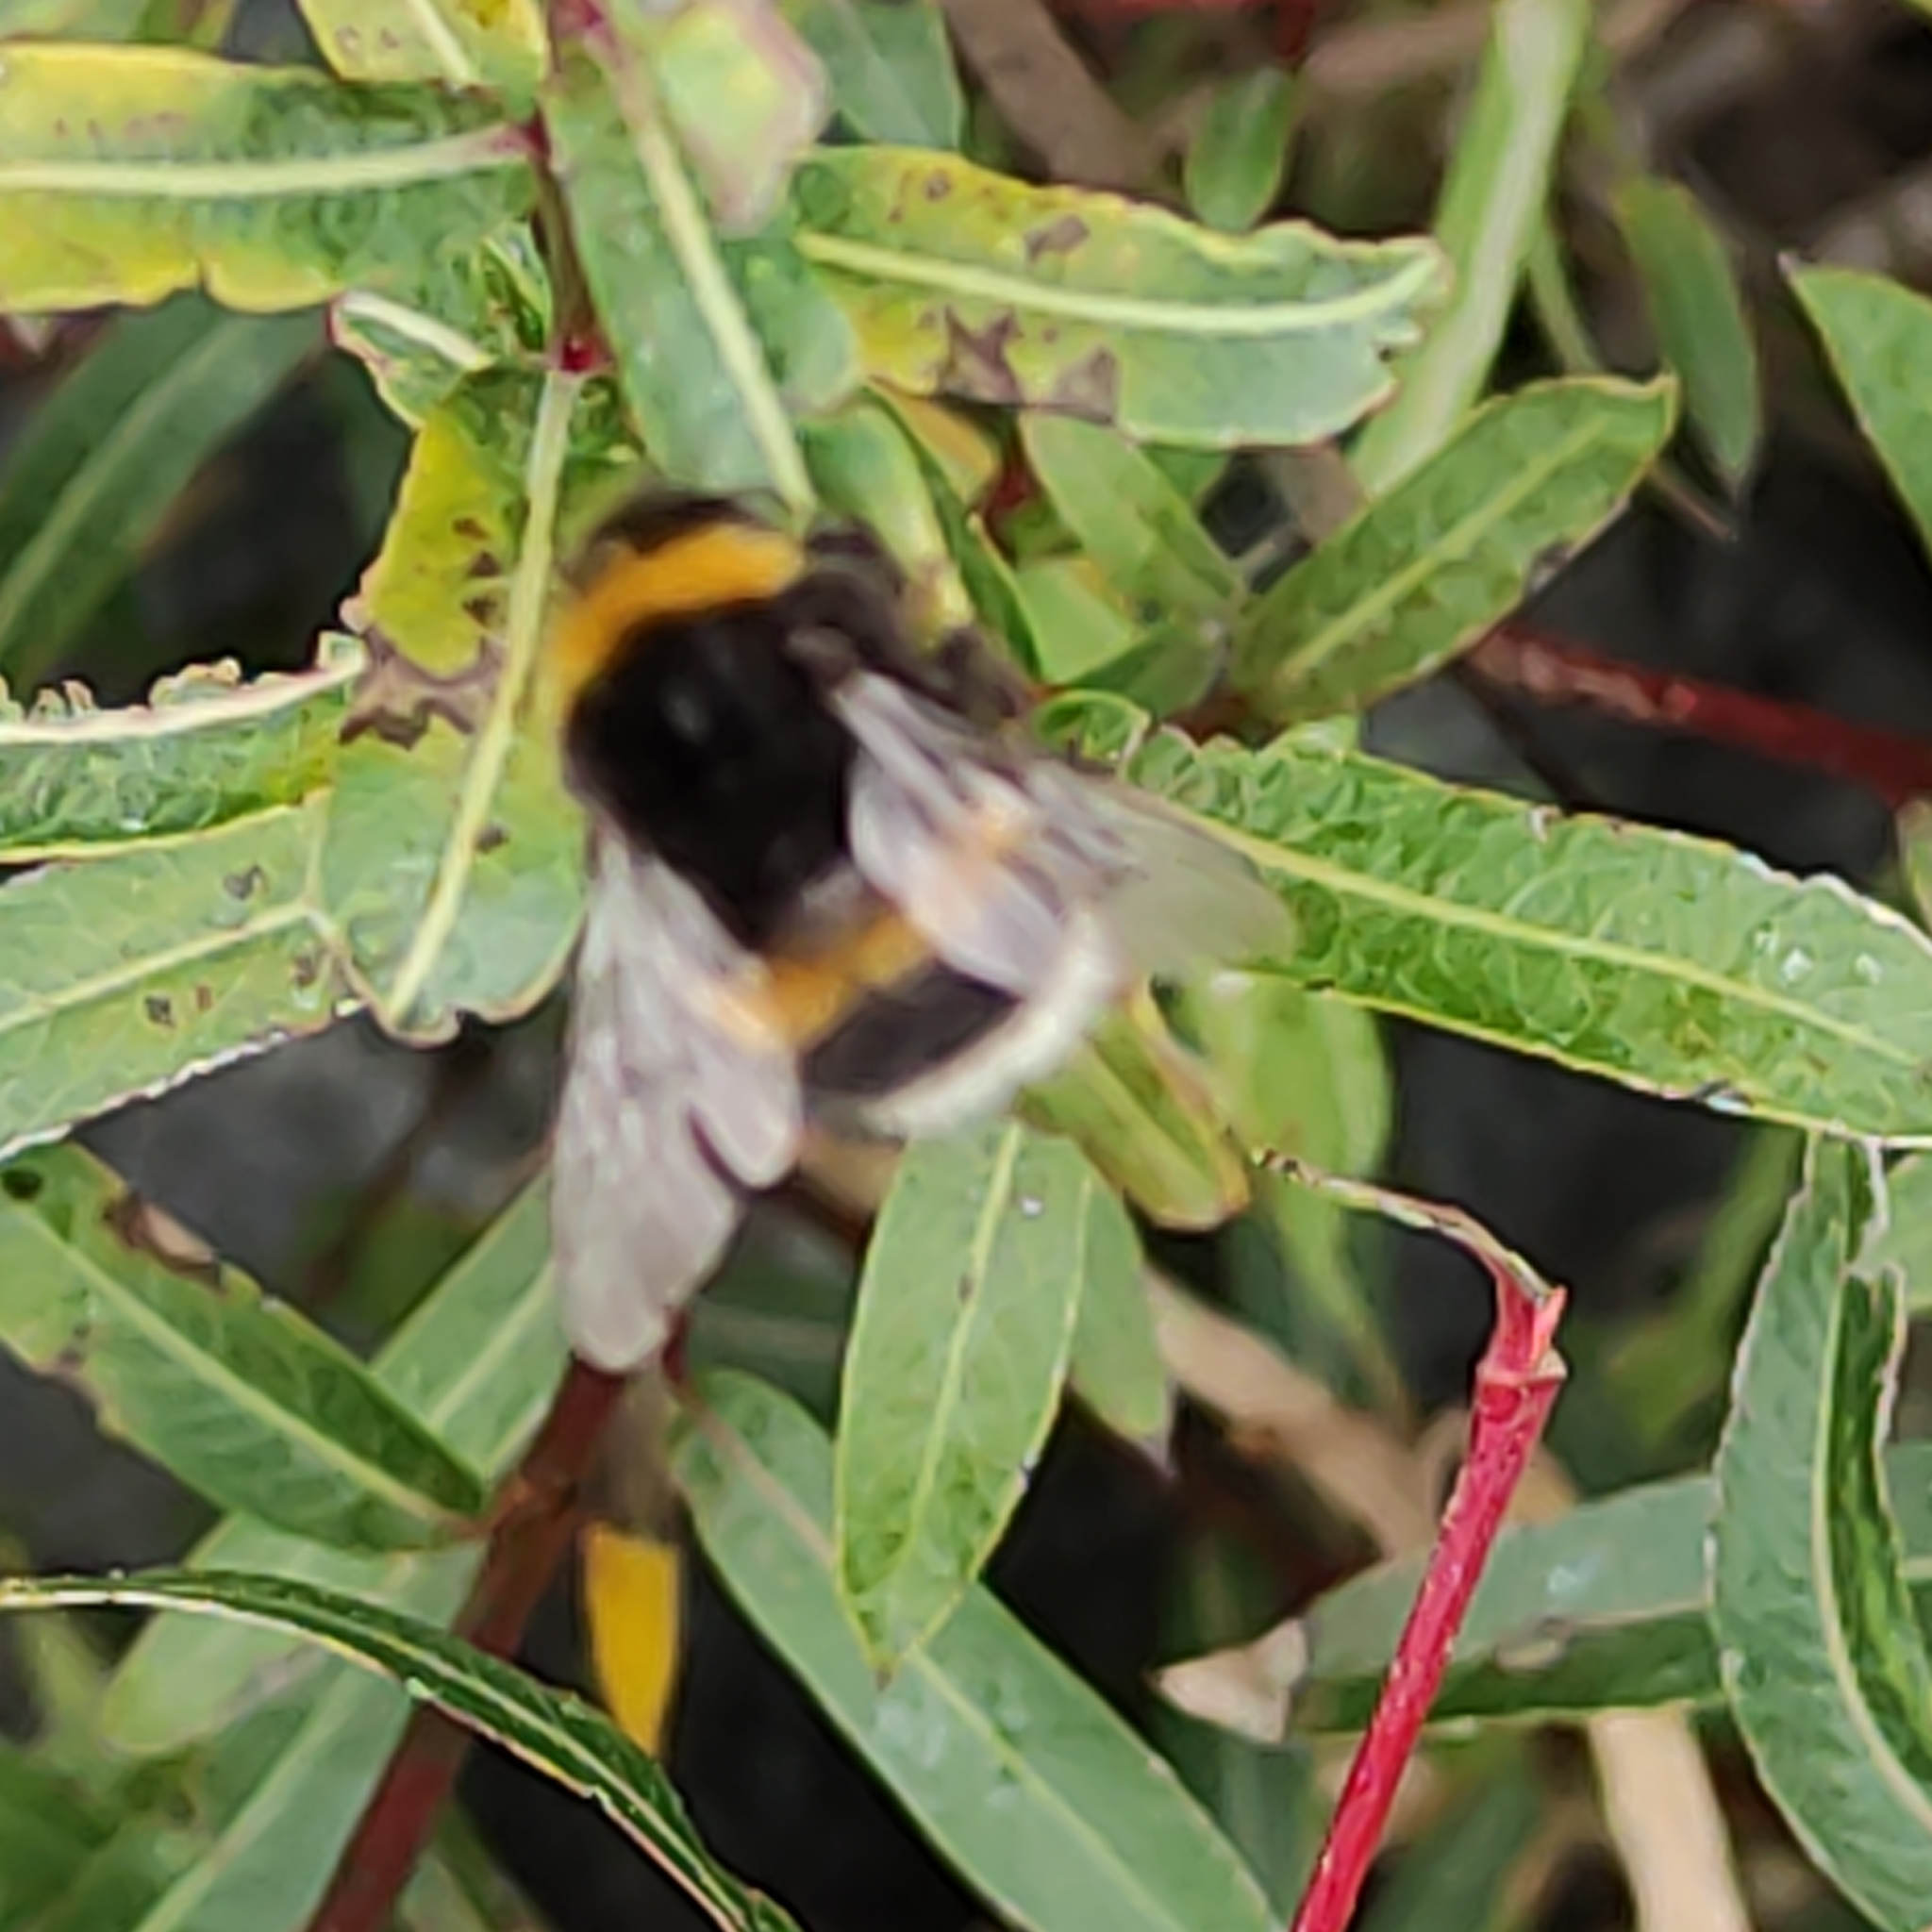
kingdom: Animalia
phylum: Arthropoda
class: Insecta
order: Hymenoptera
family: Apidae
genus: Bombus
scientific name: Bombus terrestris
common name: Buff-tailed bumblebee
